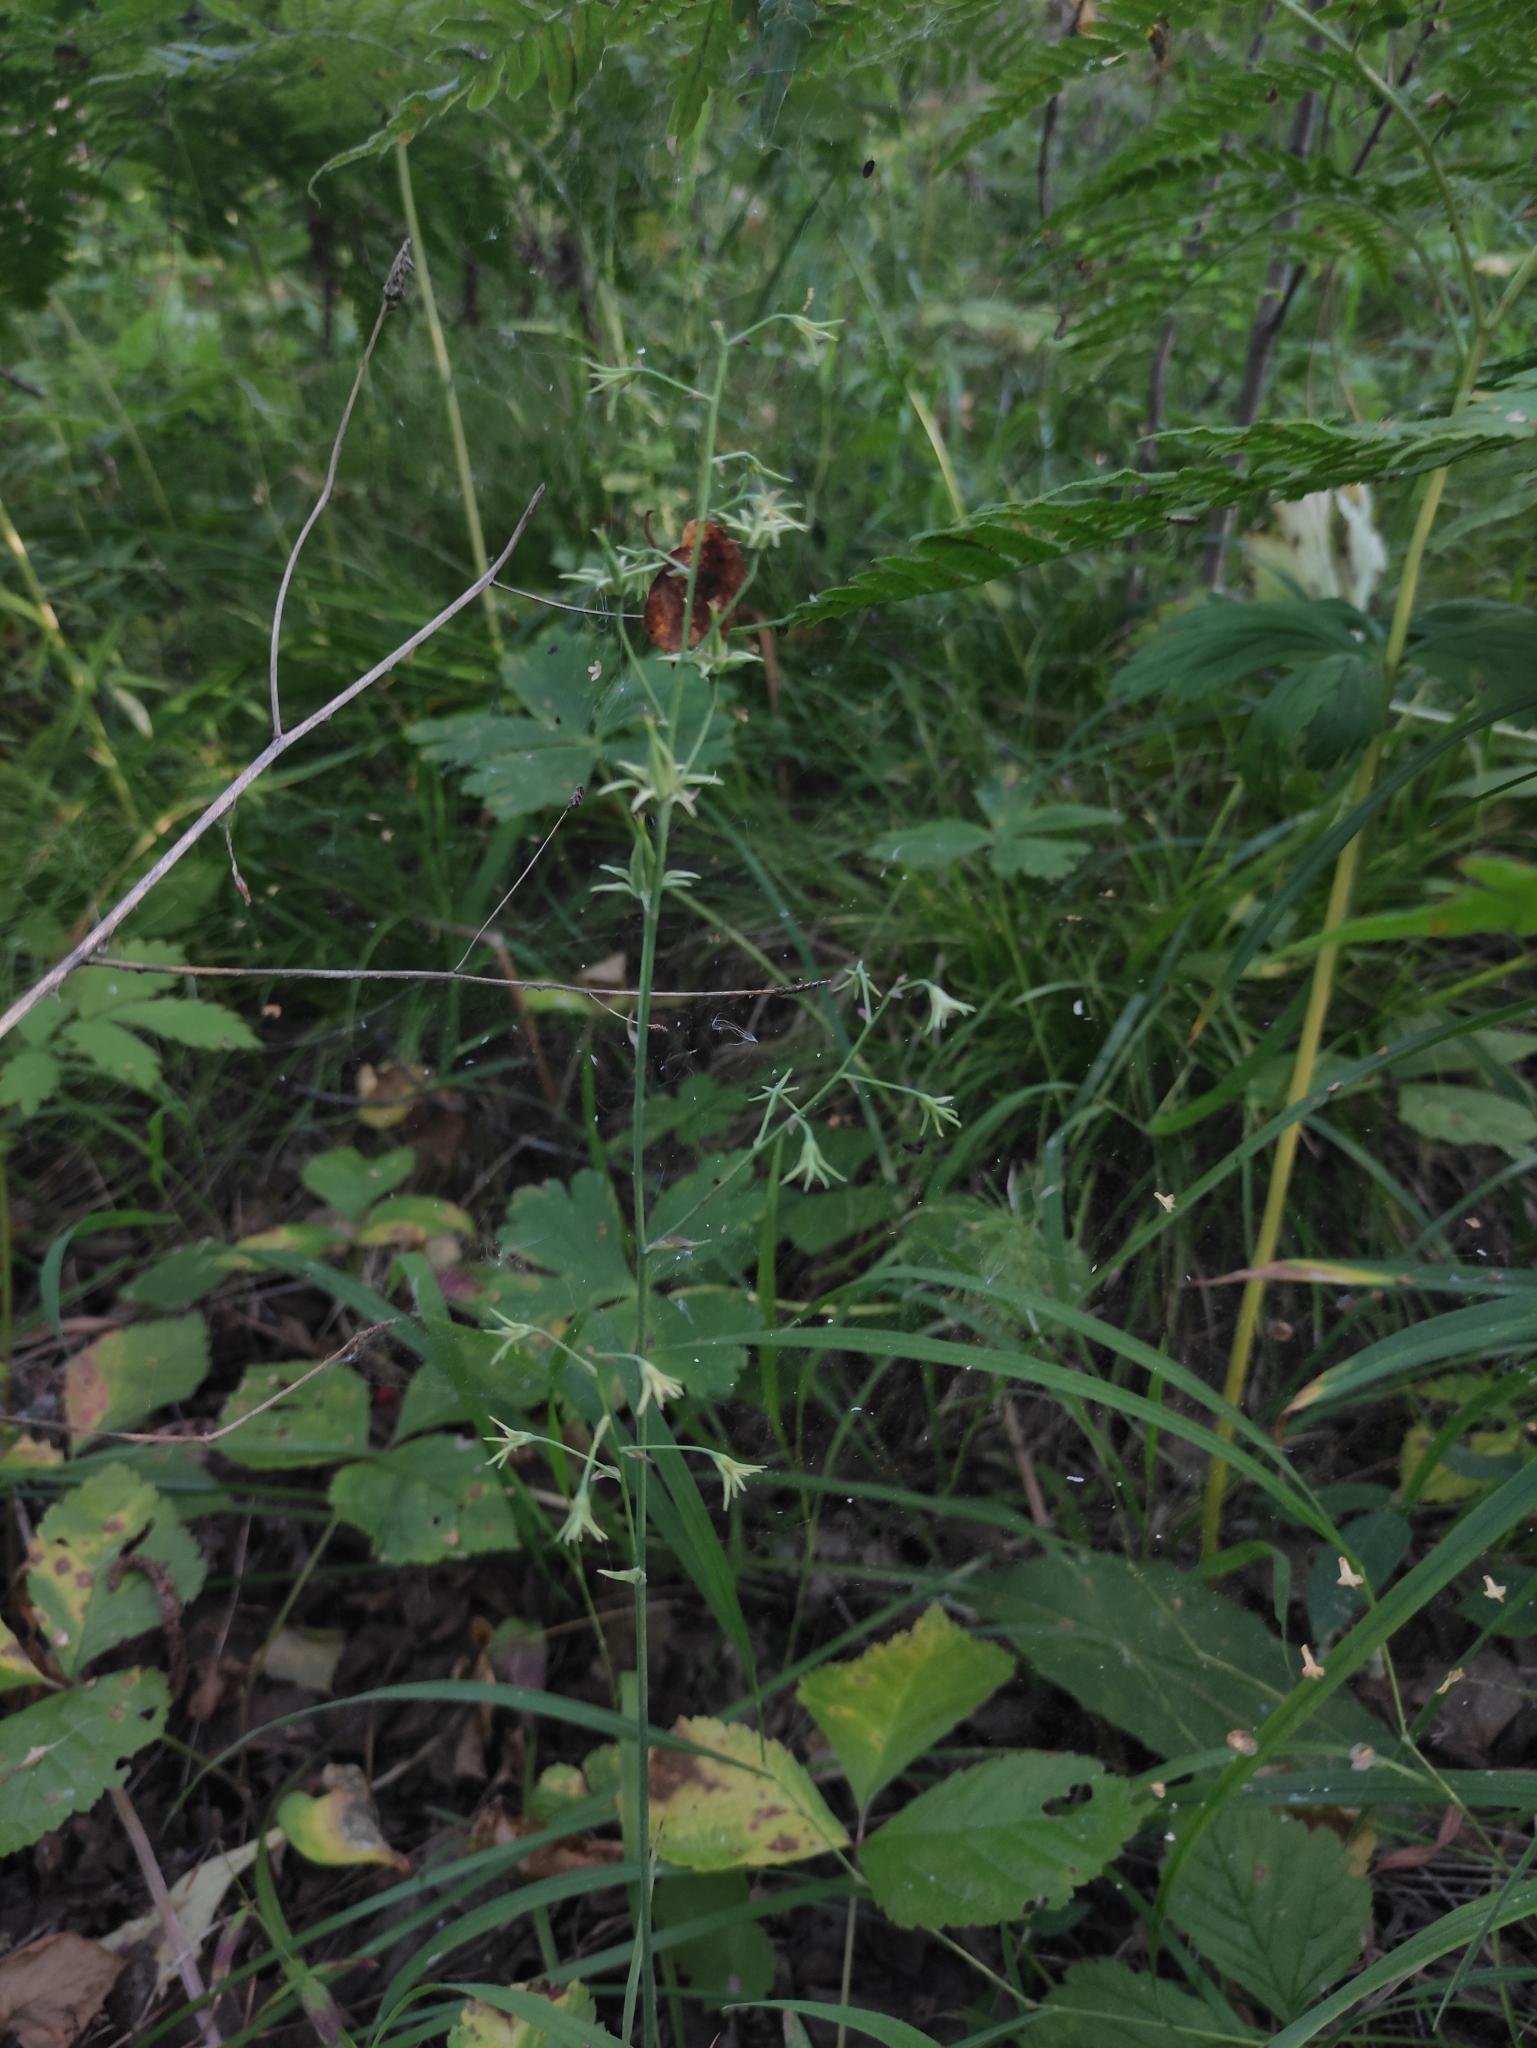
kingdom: Plantae
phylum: Tracheophyta
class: Liliopsida
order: Liliales
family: Melanthiaceae
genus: Anticlea
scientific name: Anticlea sibirica
